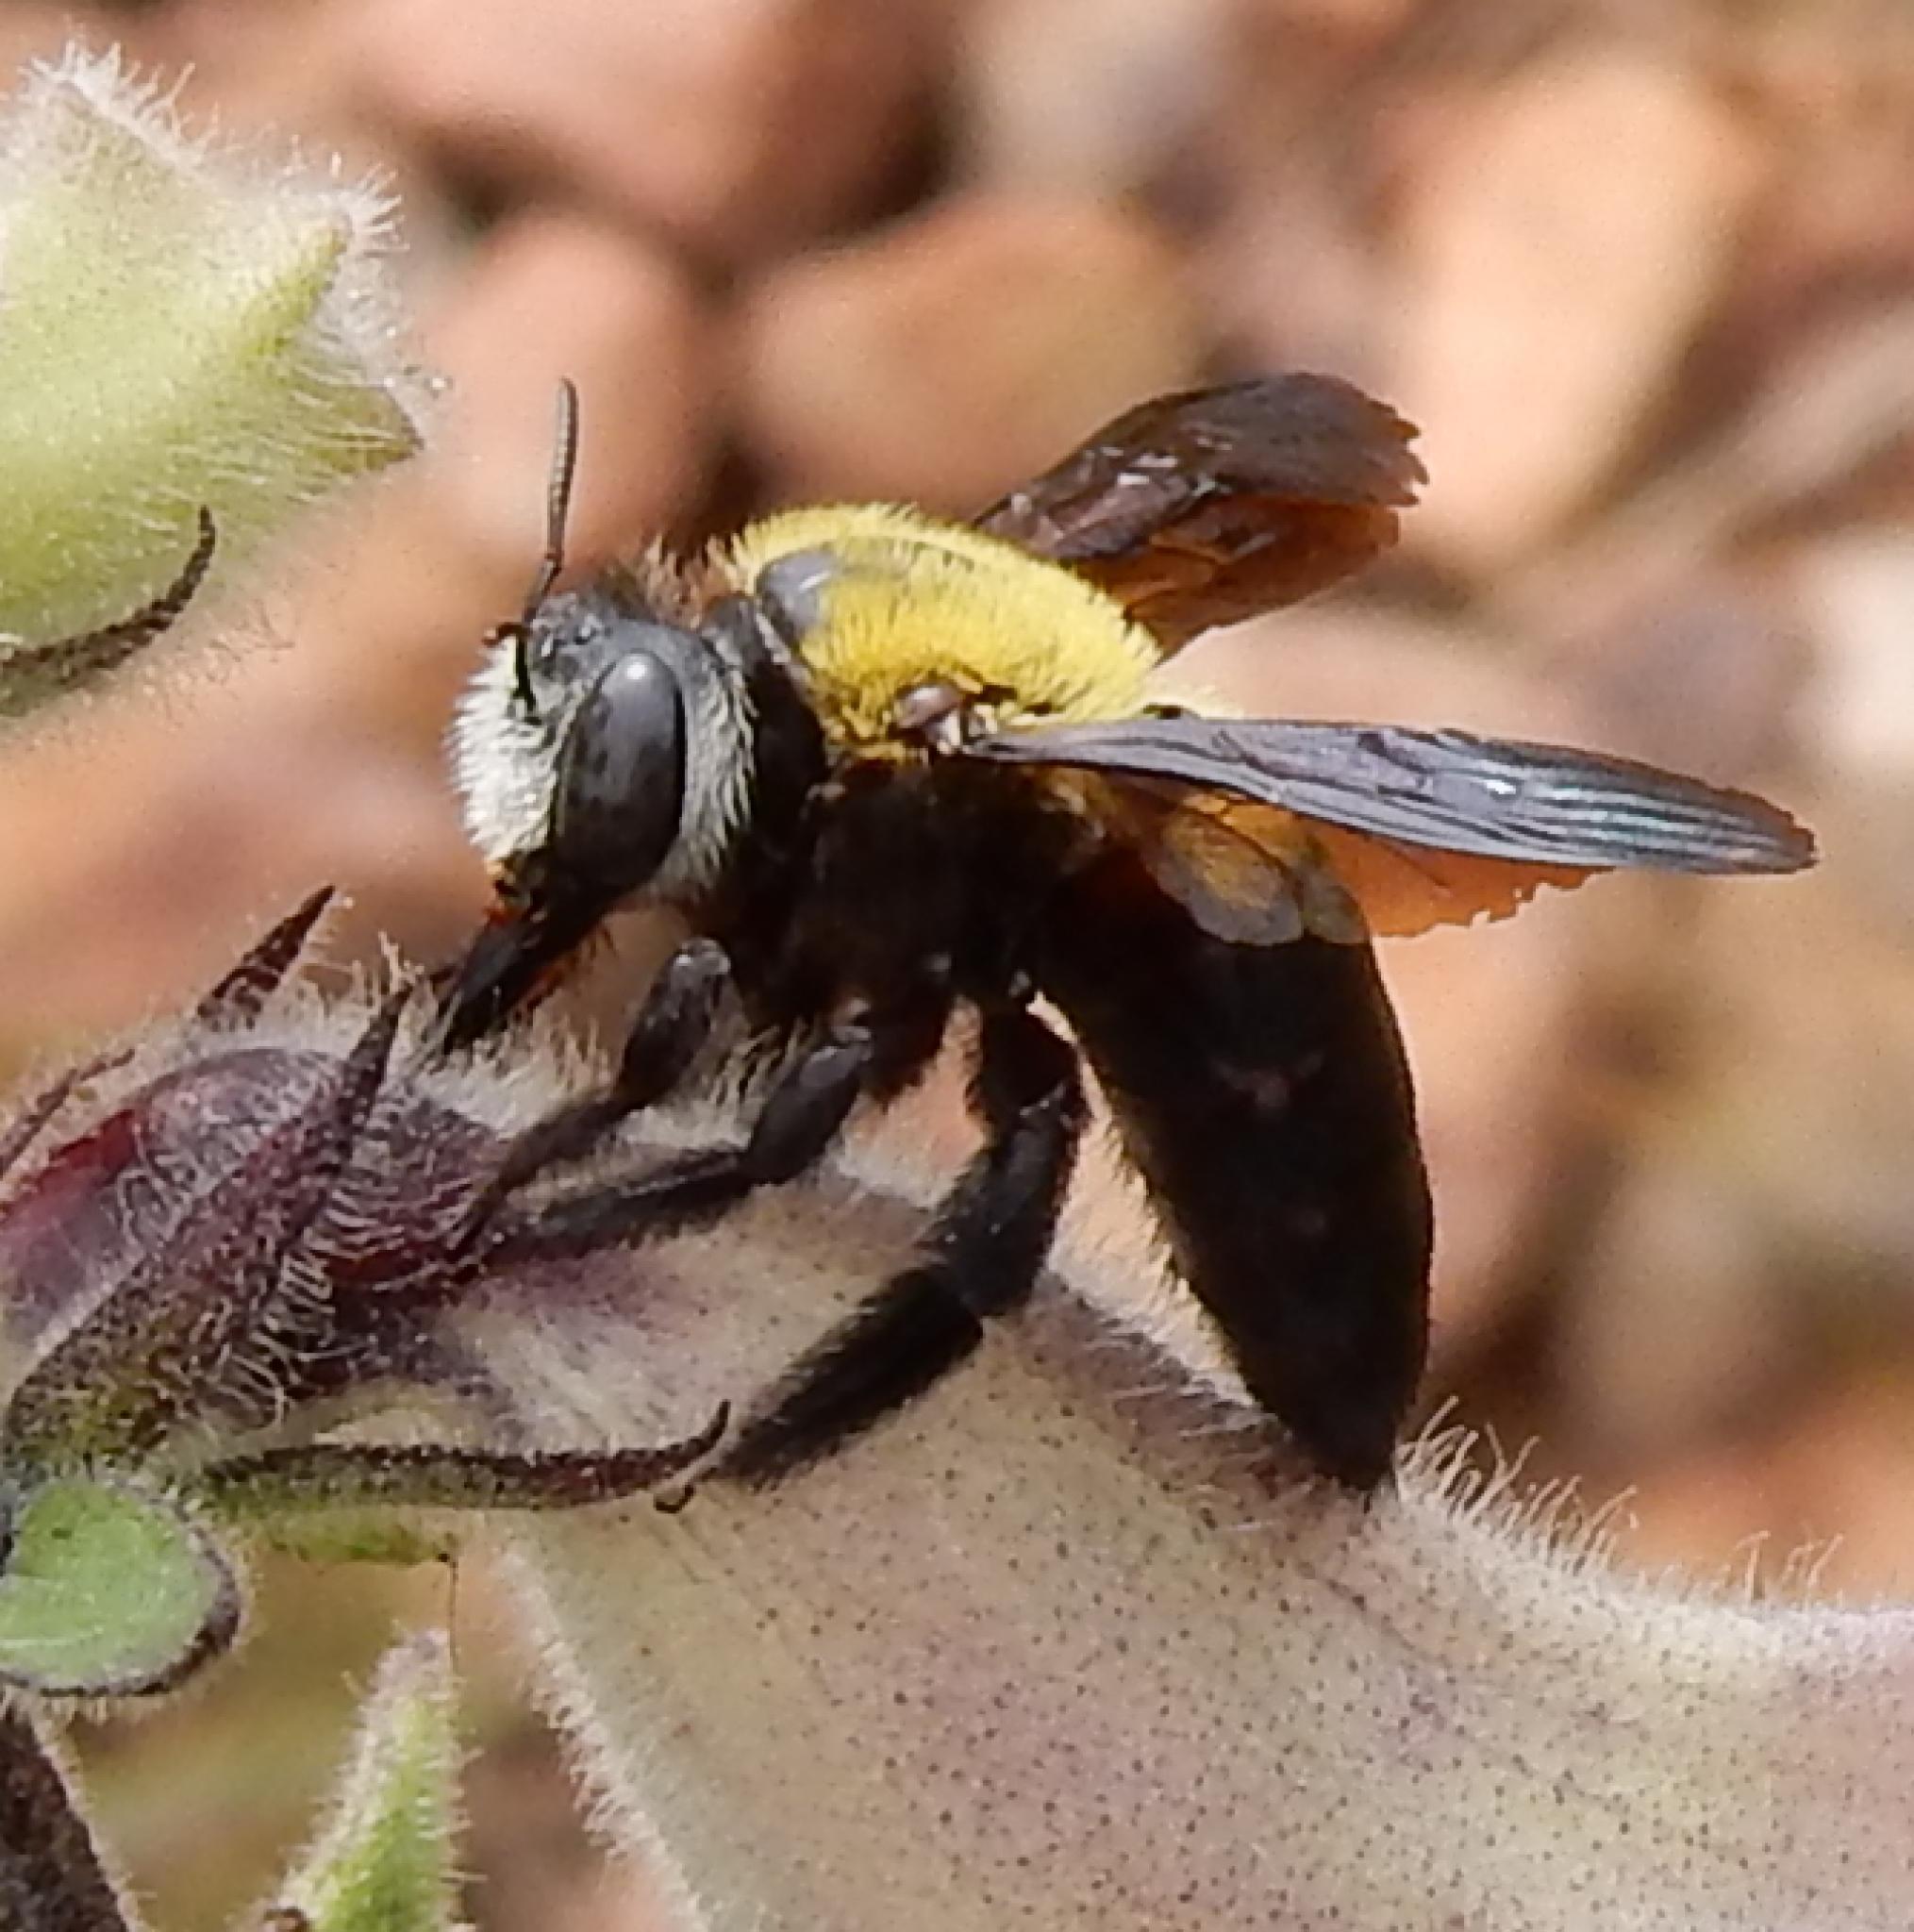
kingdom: Animalia
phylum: Arthropoda
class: Insecta
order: Hymenoptera
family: Apidae
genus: Xylocopa
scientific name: Xylocopa senior
